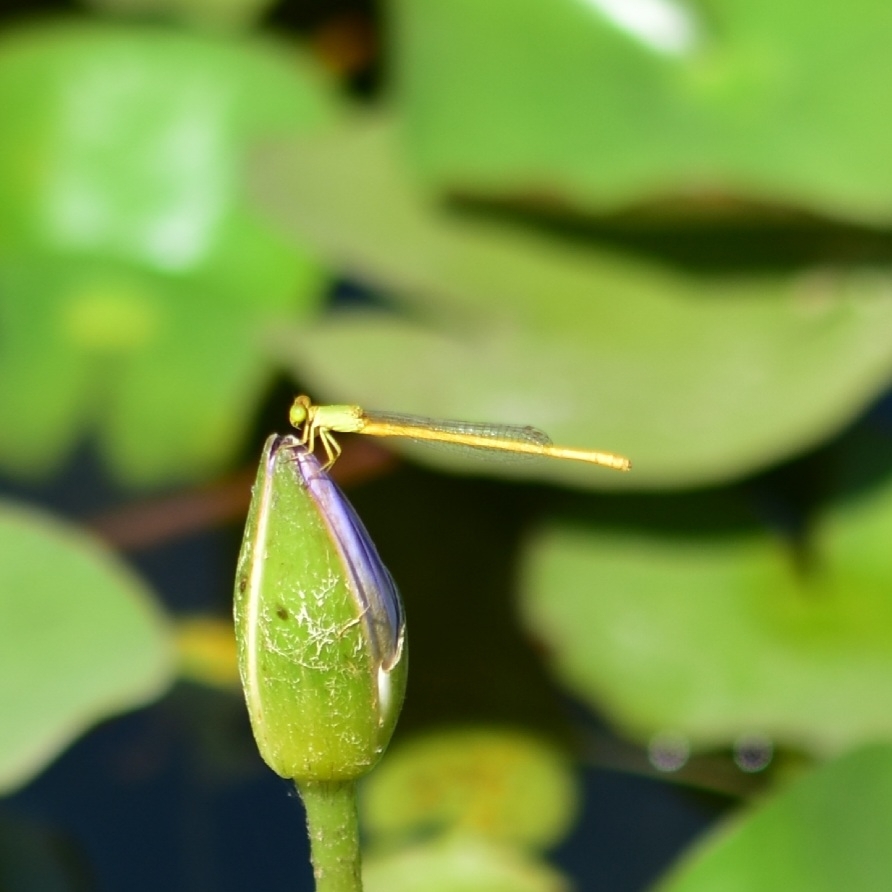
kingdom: Animalia
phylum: Arthropoda
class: Insecta
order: Odonata
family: Coenagrionidae
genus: Ceriagrion
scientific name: Ceriagrion coromandelianum
